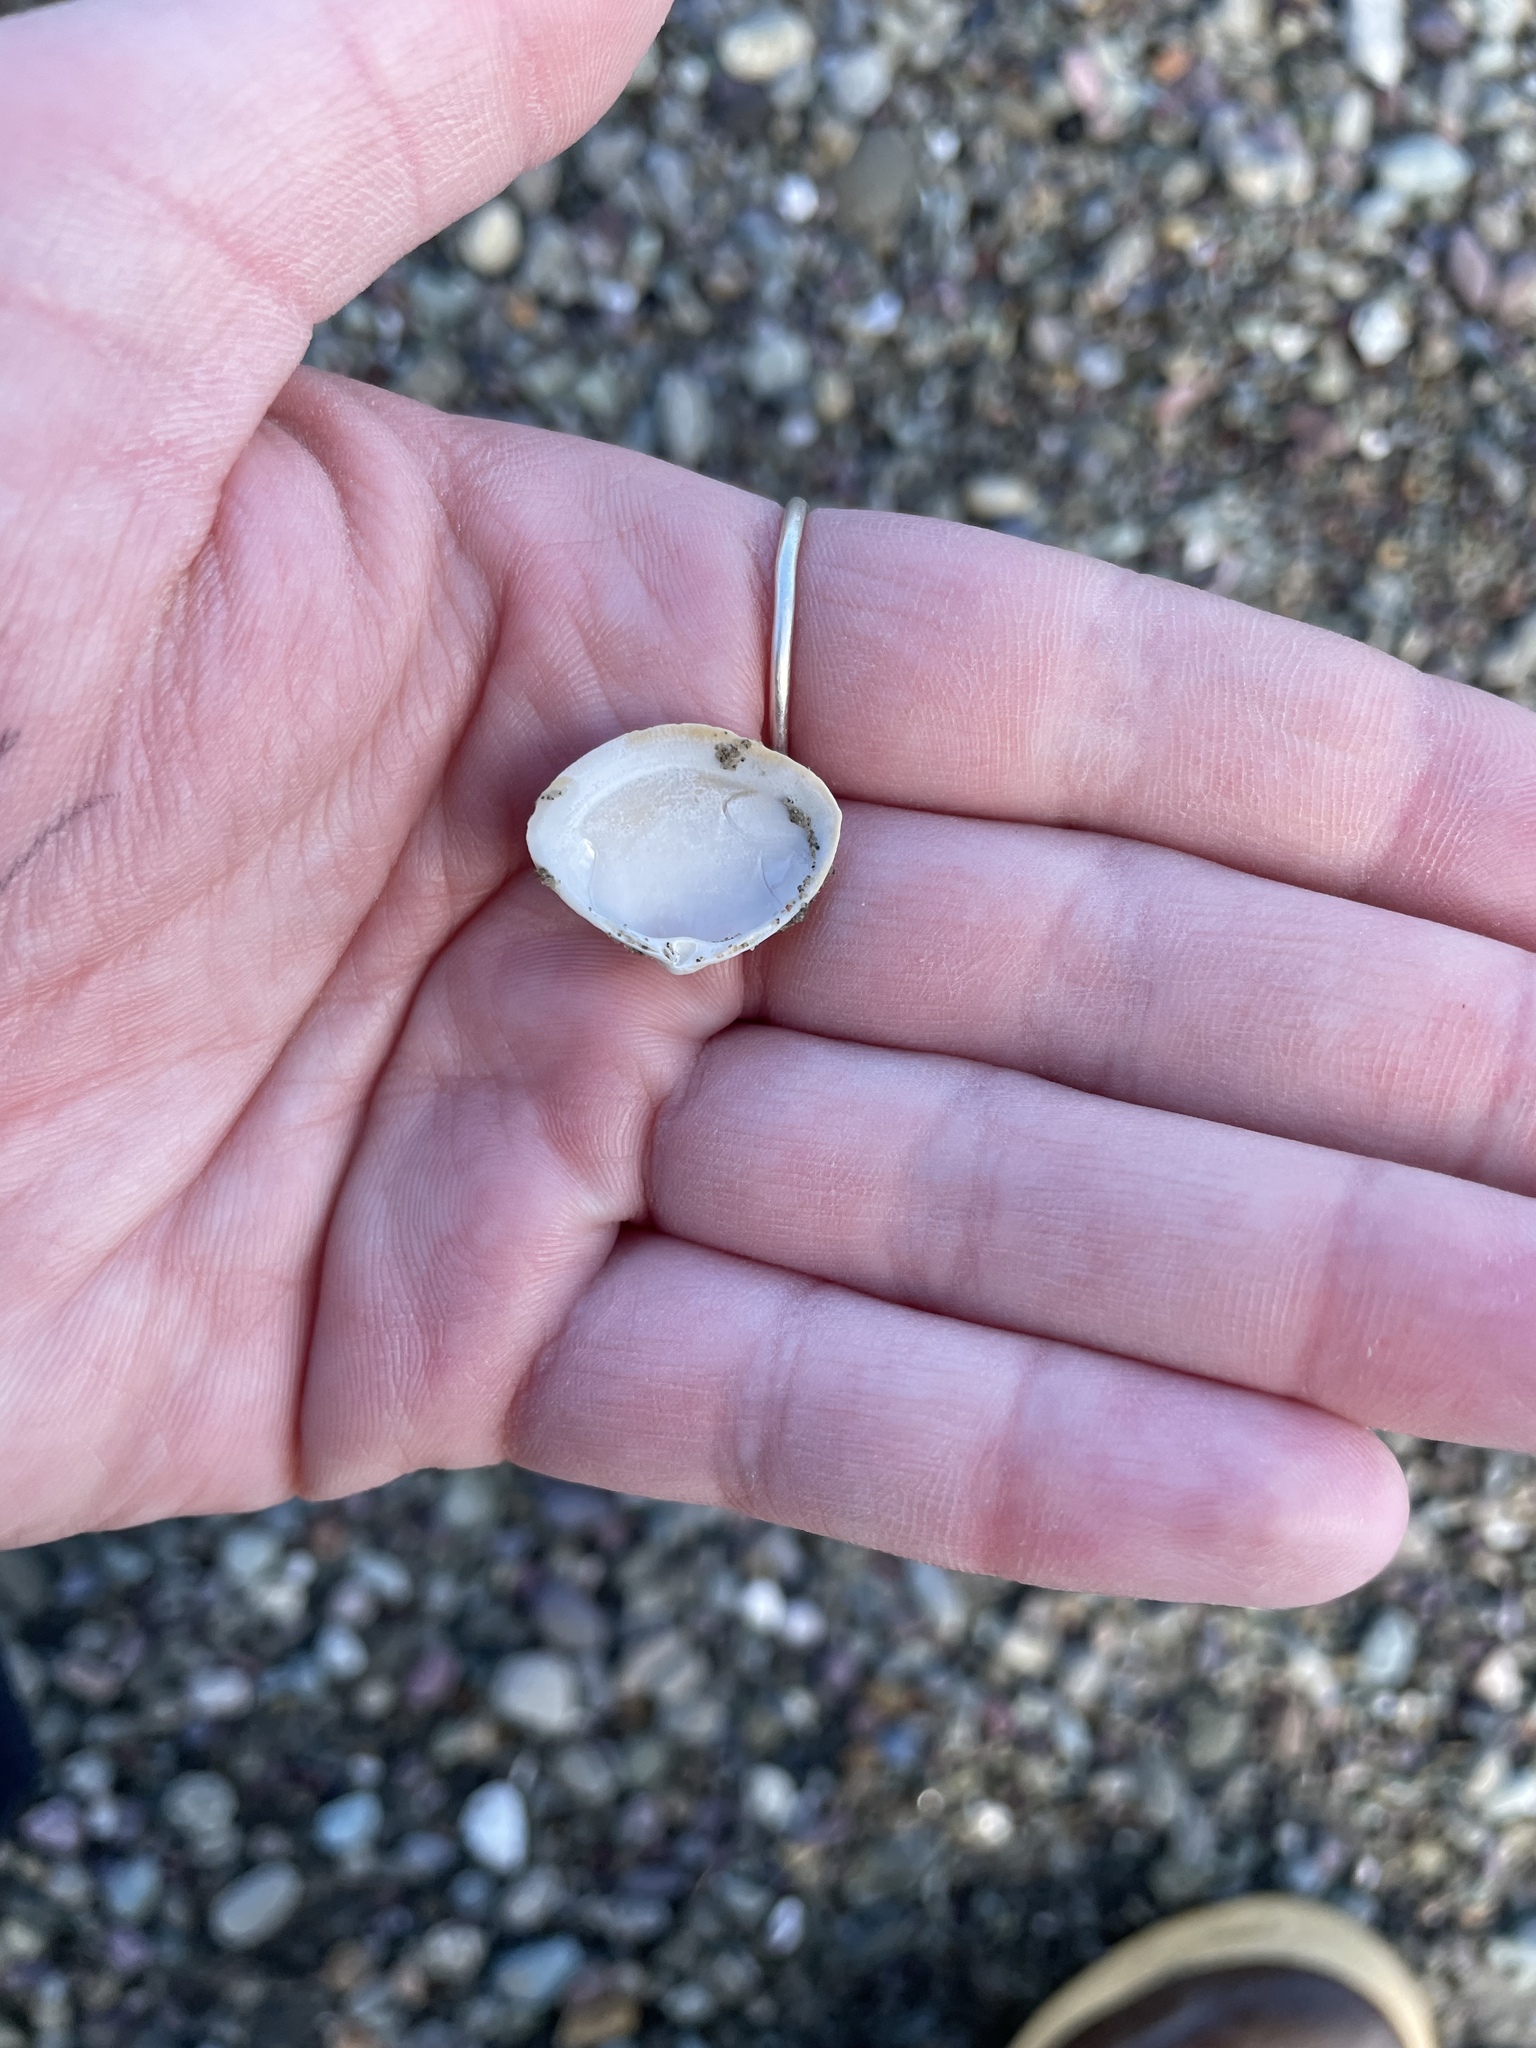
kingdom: Animalia
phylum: Mollusca
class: Bivalvia
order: Venerida
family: Mactridae
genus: Spisula
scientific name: Spisula solidissima
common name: Atlantic surf clam
